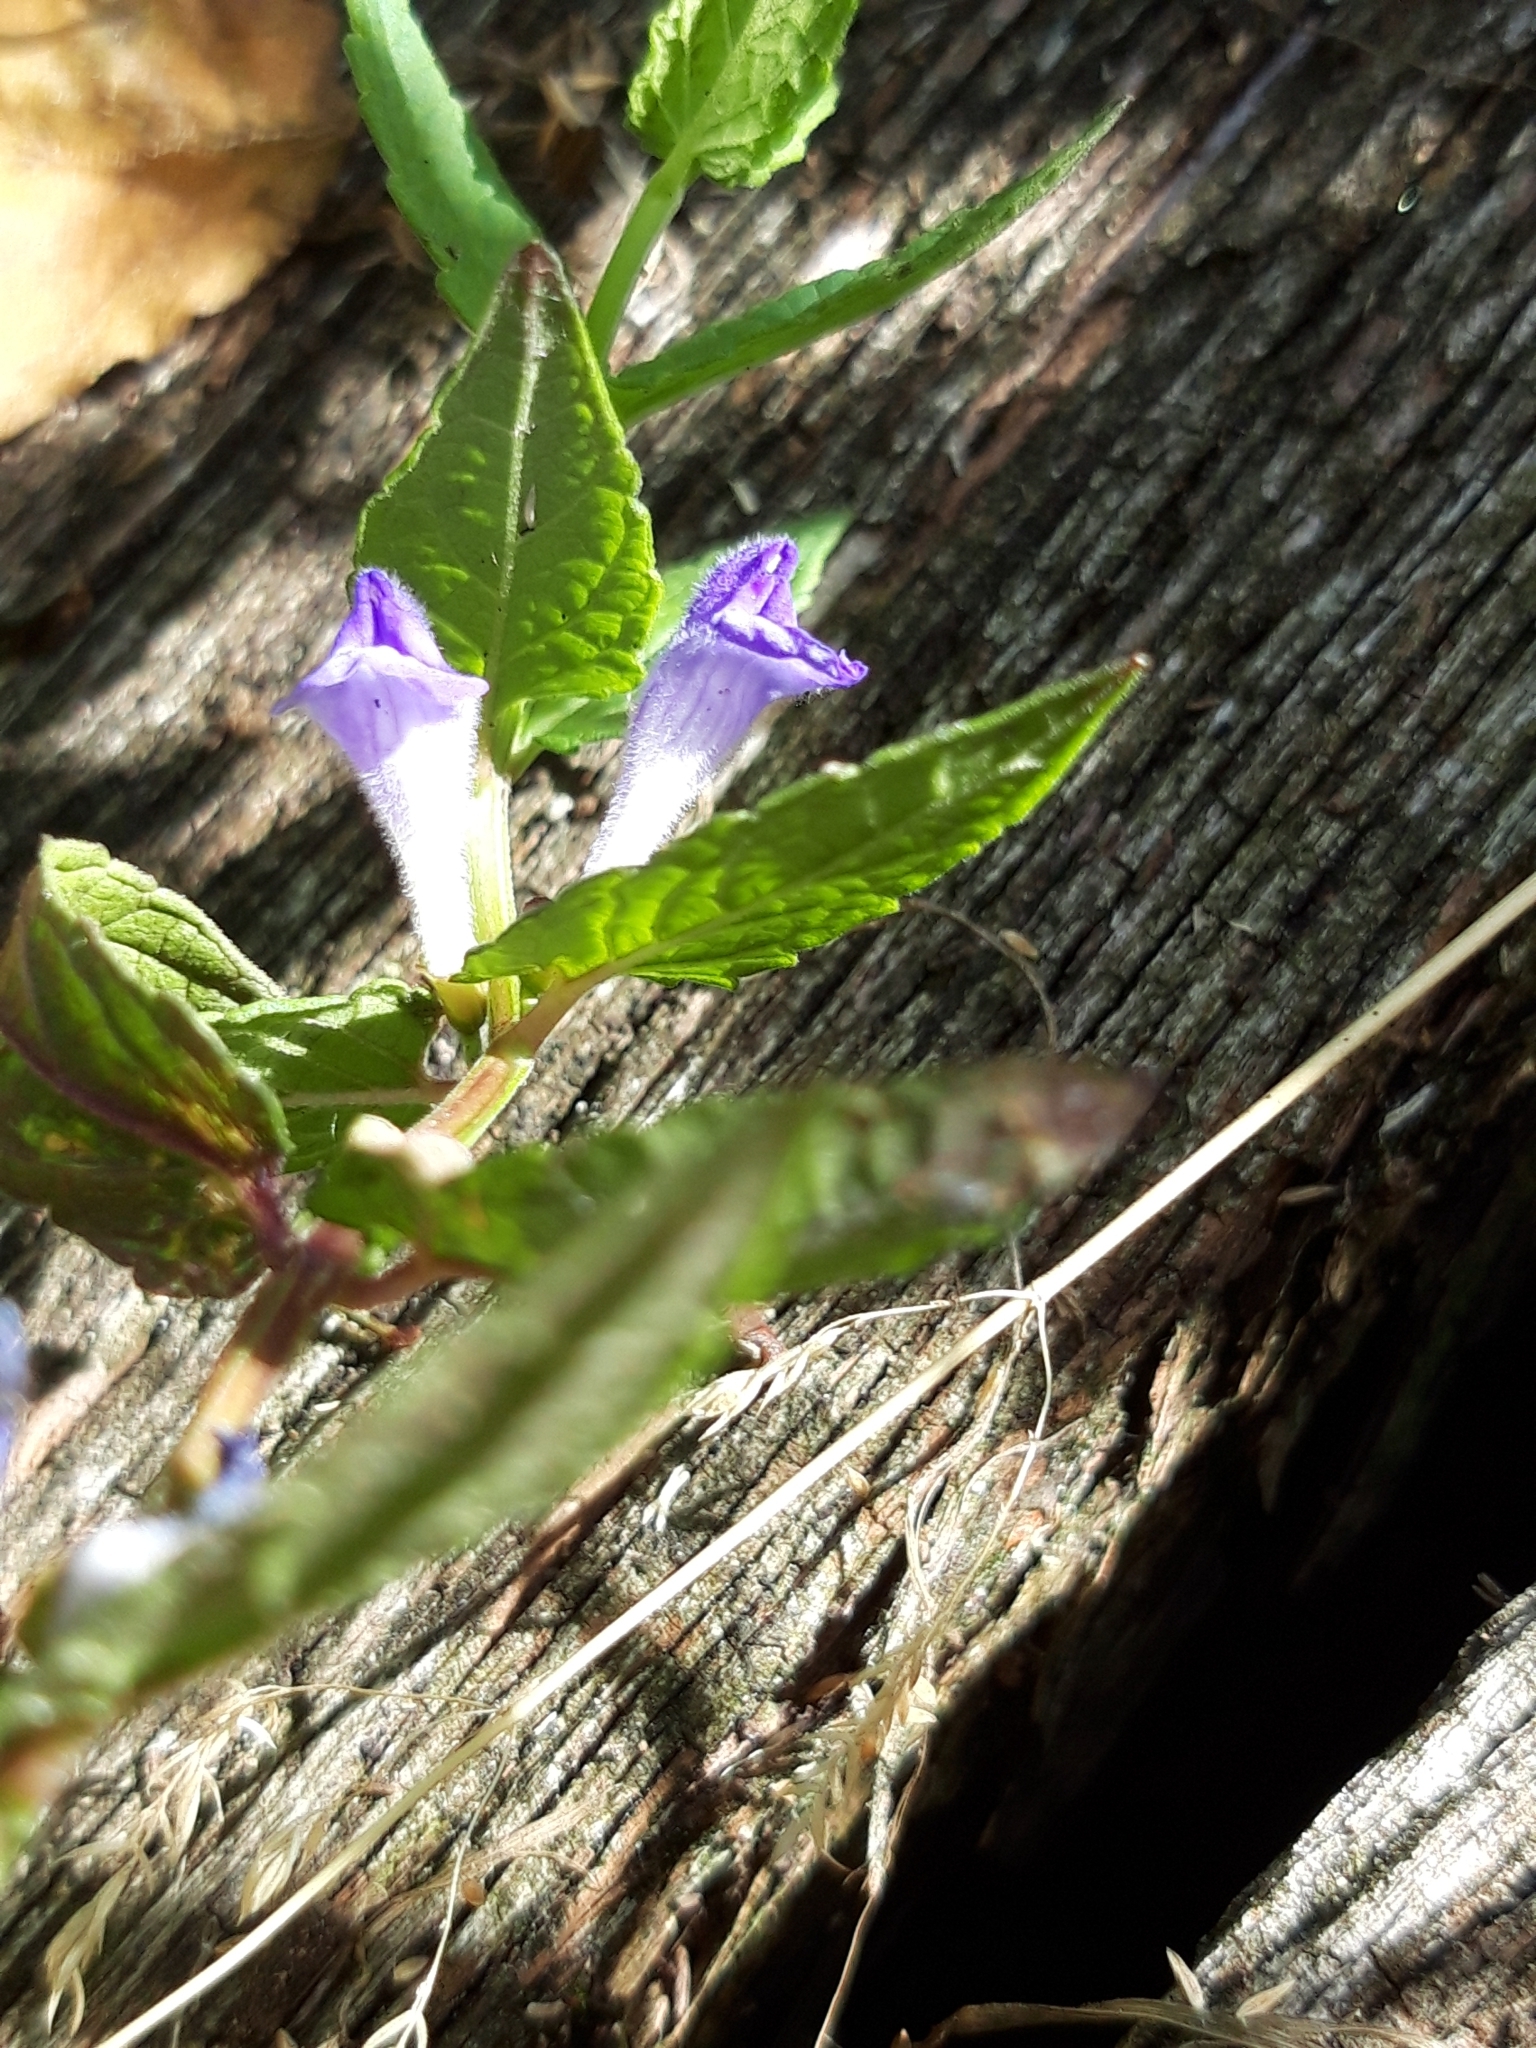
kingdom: Plantae
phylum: Tracheophyta
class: Magnoliopsida
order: Lamiales
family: Lamiaceae
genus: Scutellaria
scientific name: Scutellaria galericulata
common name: Skullcap
